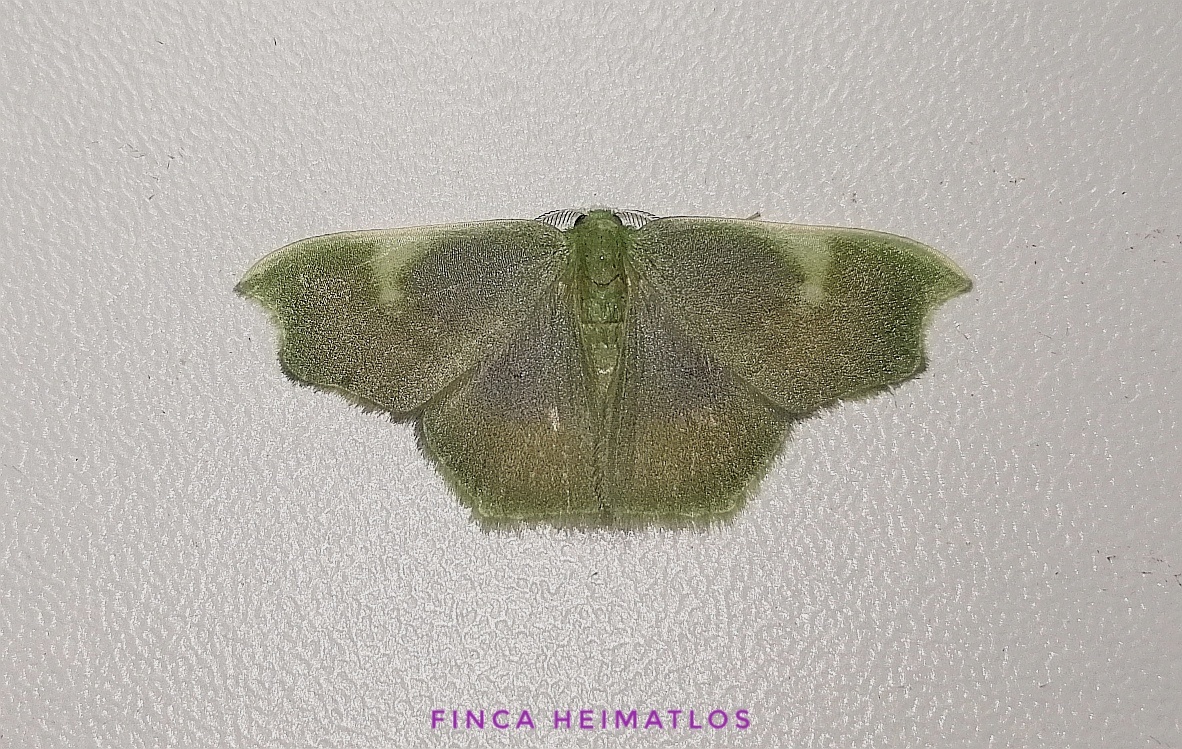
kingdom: Animalia
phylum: Arthropoda
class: Insecta
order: Lepidoptera
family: Geometridae
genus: Lissocentra
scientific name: Lissocentra
